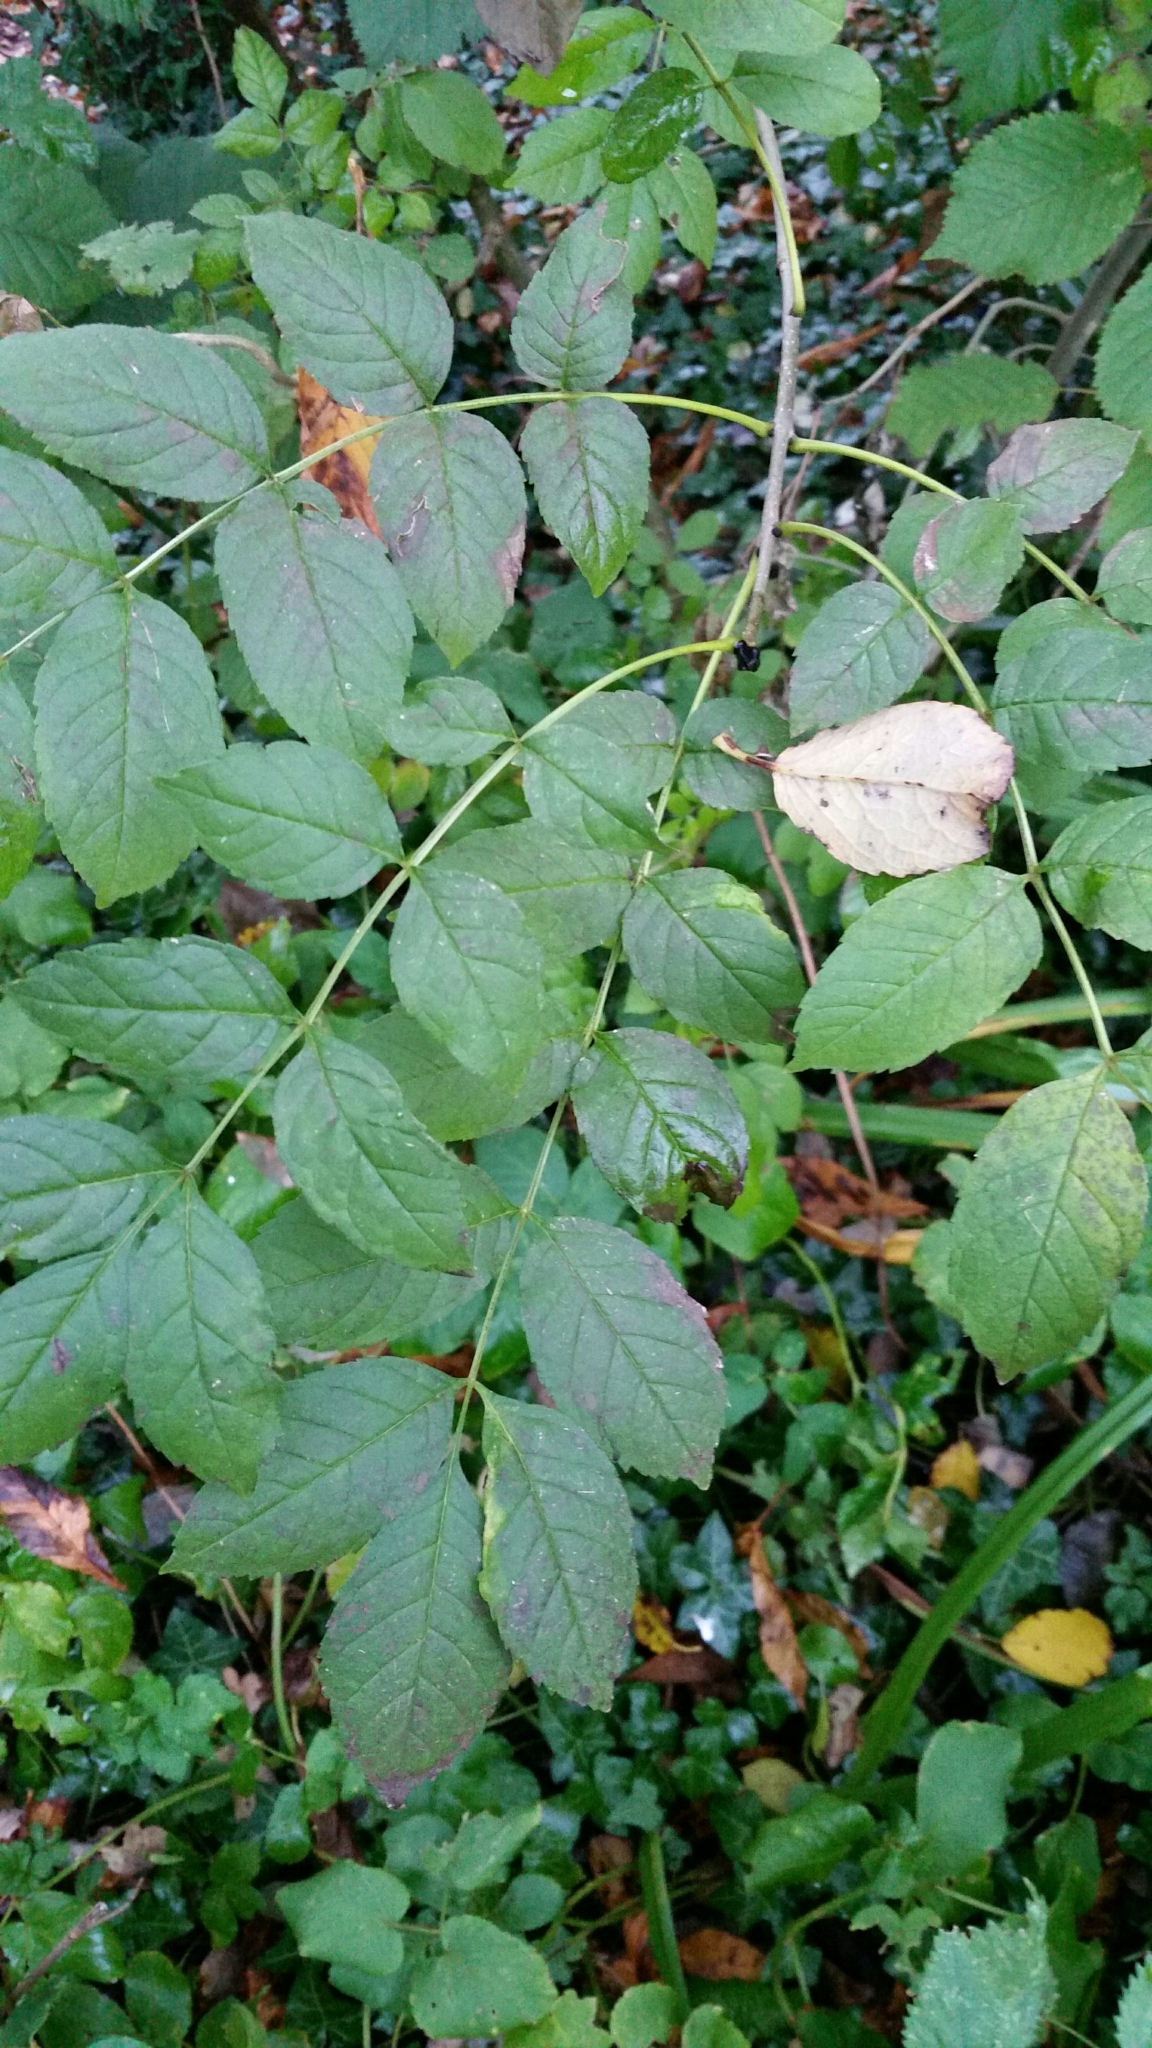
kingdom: Plantae
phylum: Tracheophyta
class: Magnoliopsida
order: Lamiales
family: Oleaceae
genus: Fraxinus
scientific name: Fraxinus excelsior
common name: European ash
